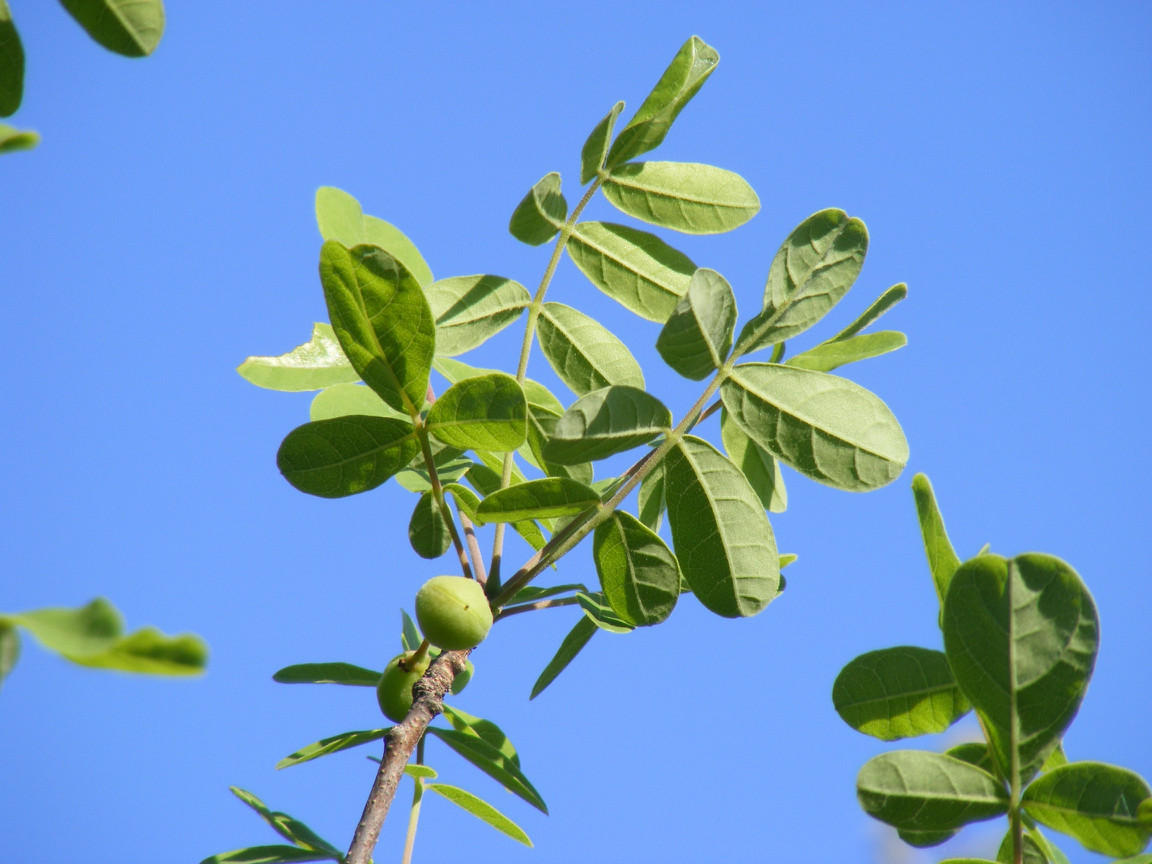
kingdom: Plantae
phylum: Tracheophyta
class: Magnoliopsida
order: Sapindales
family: Burseraceae
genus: Commiphora
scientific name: Commiphora mollis
